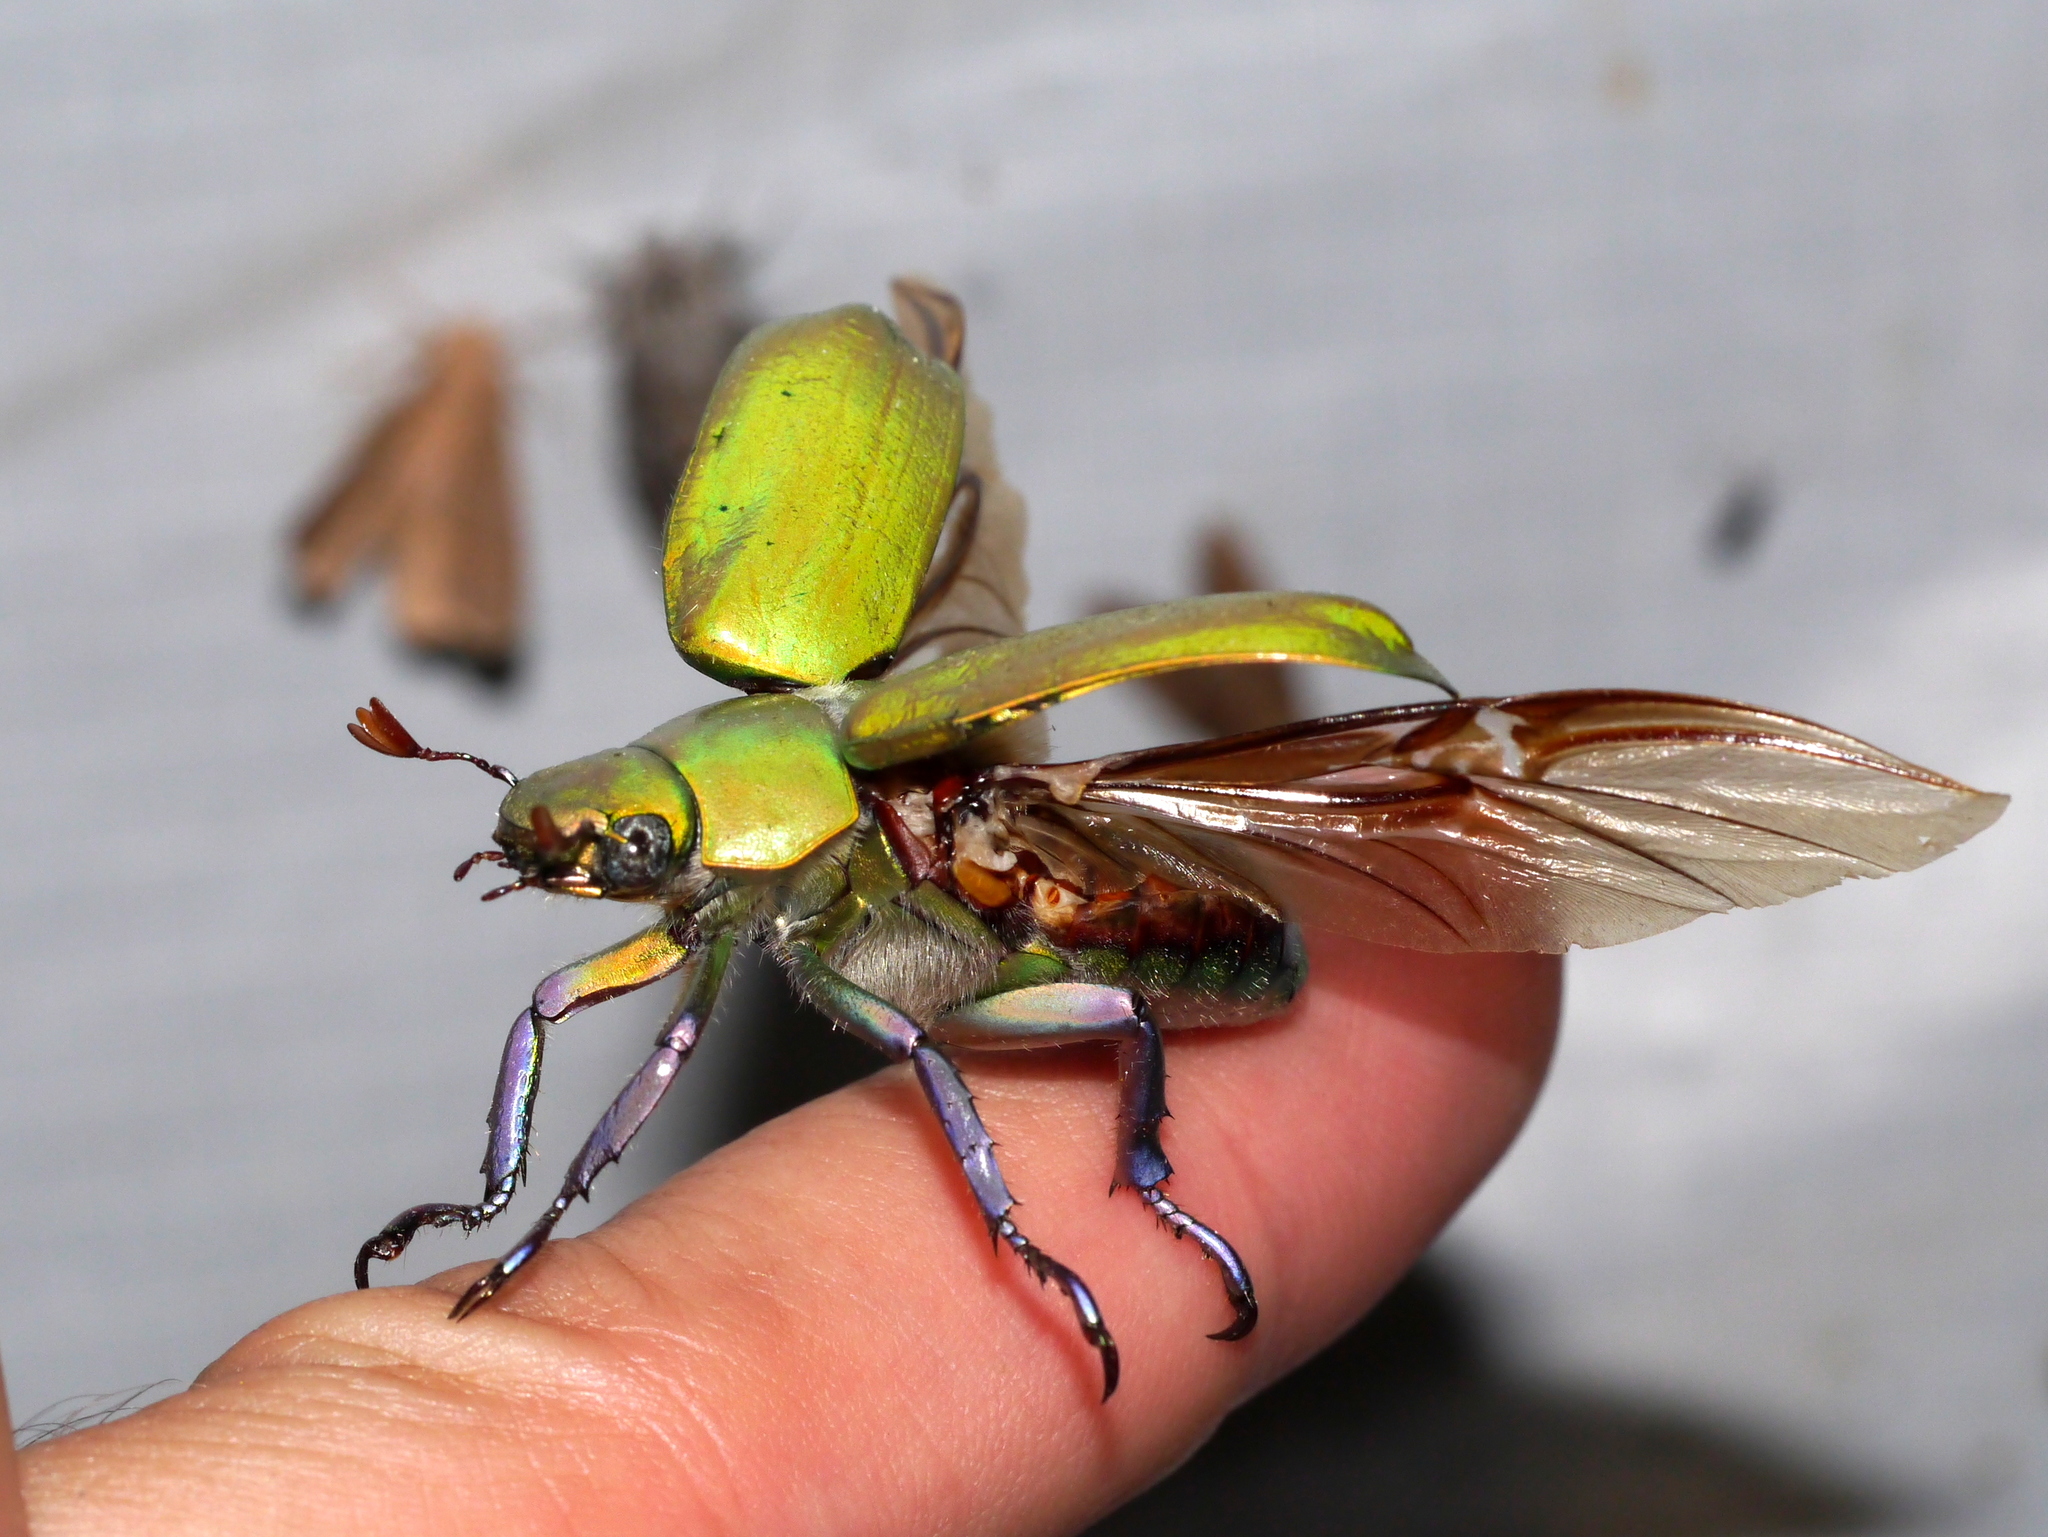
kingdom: Animalia
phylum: Arthropoda
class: Insecta
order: Coleoptera
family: Scarabaeidae
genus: Chrysina
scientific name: Chrysina beyeri
